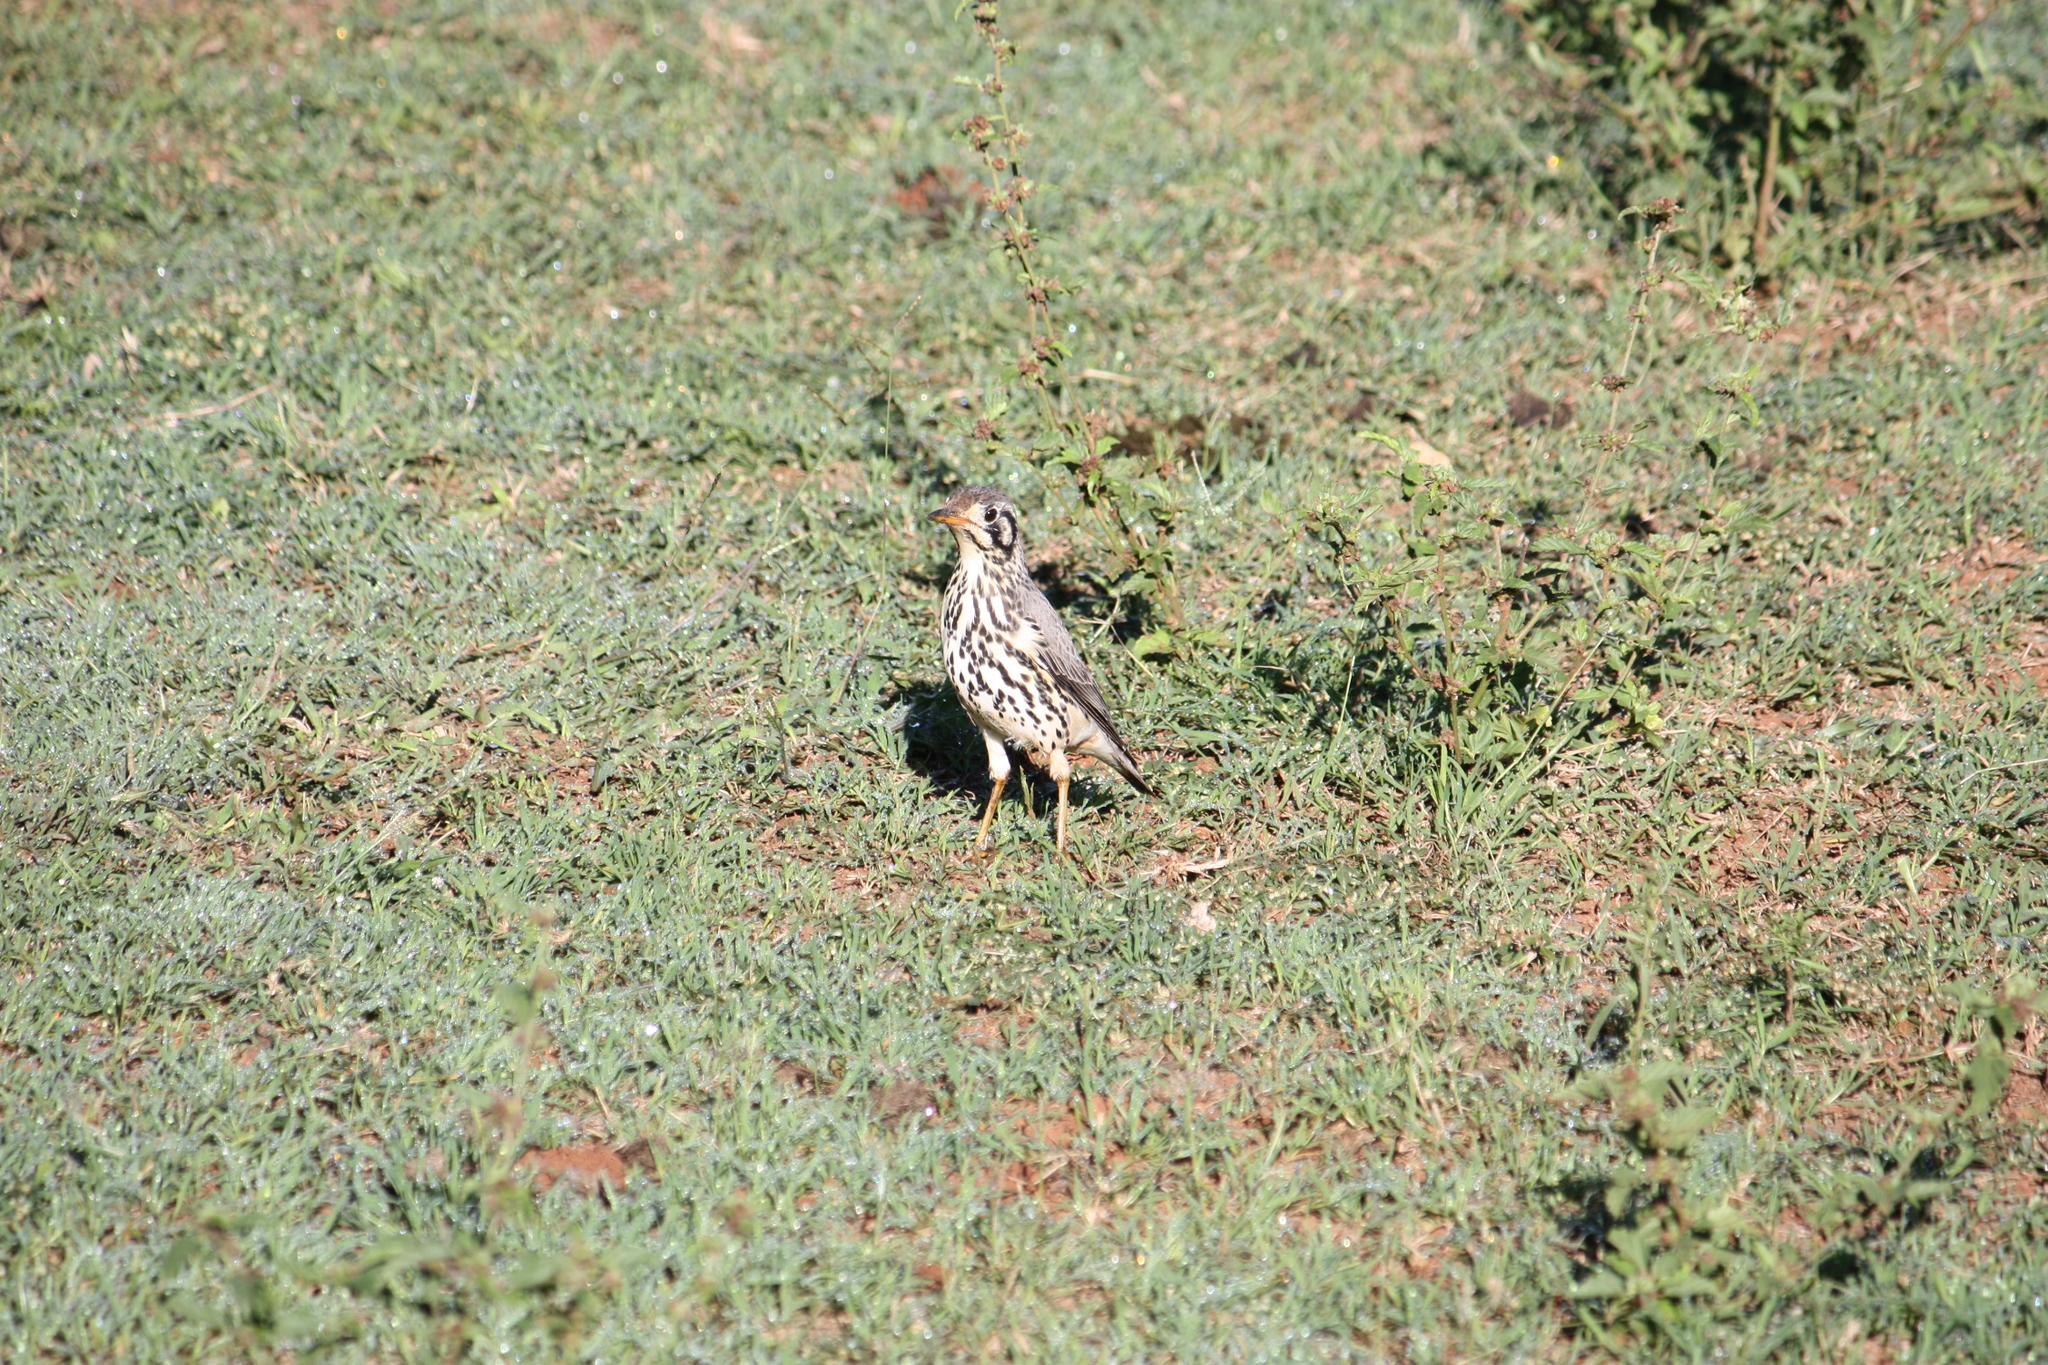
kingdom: Animalia
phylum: Chordata
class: Aves
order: Passeriformes
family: Turdidae
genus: Psophocichla
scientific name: Psophocichla litsitsirupa
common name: Groundscraper thrush
